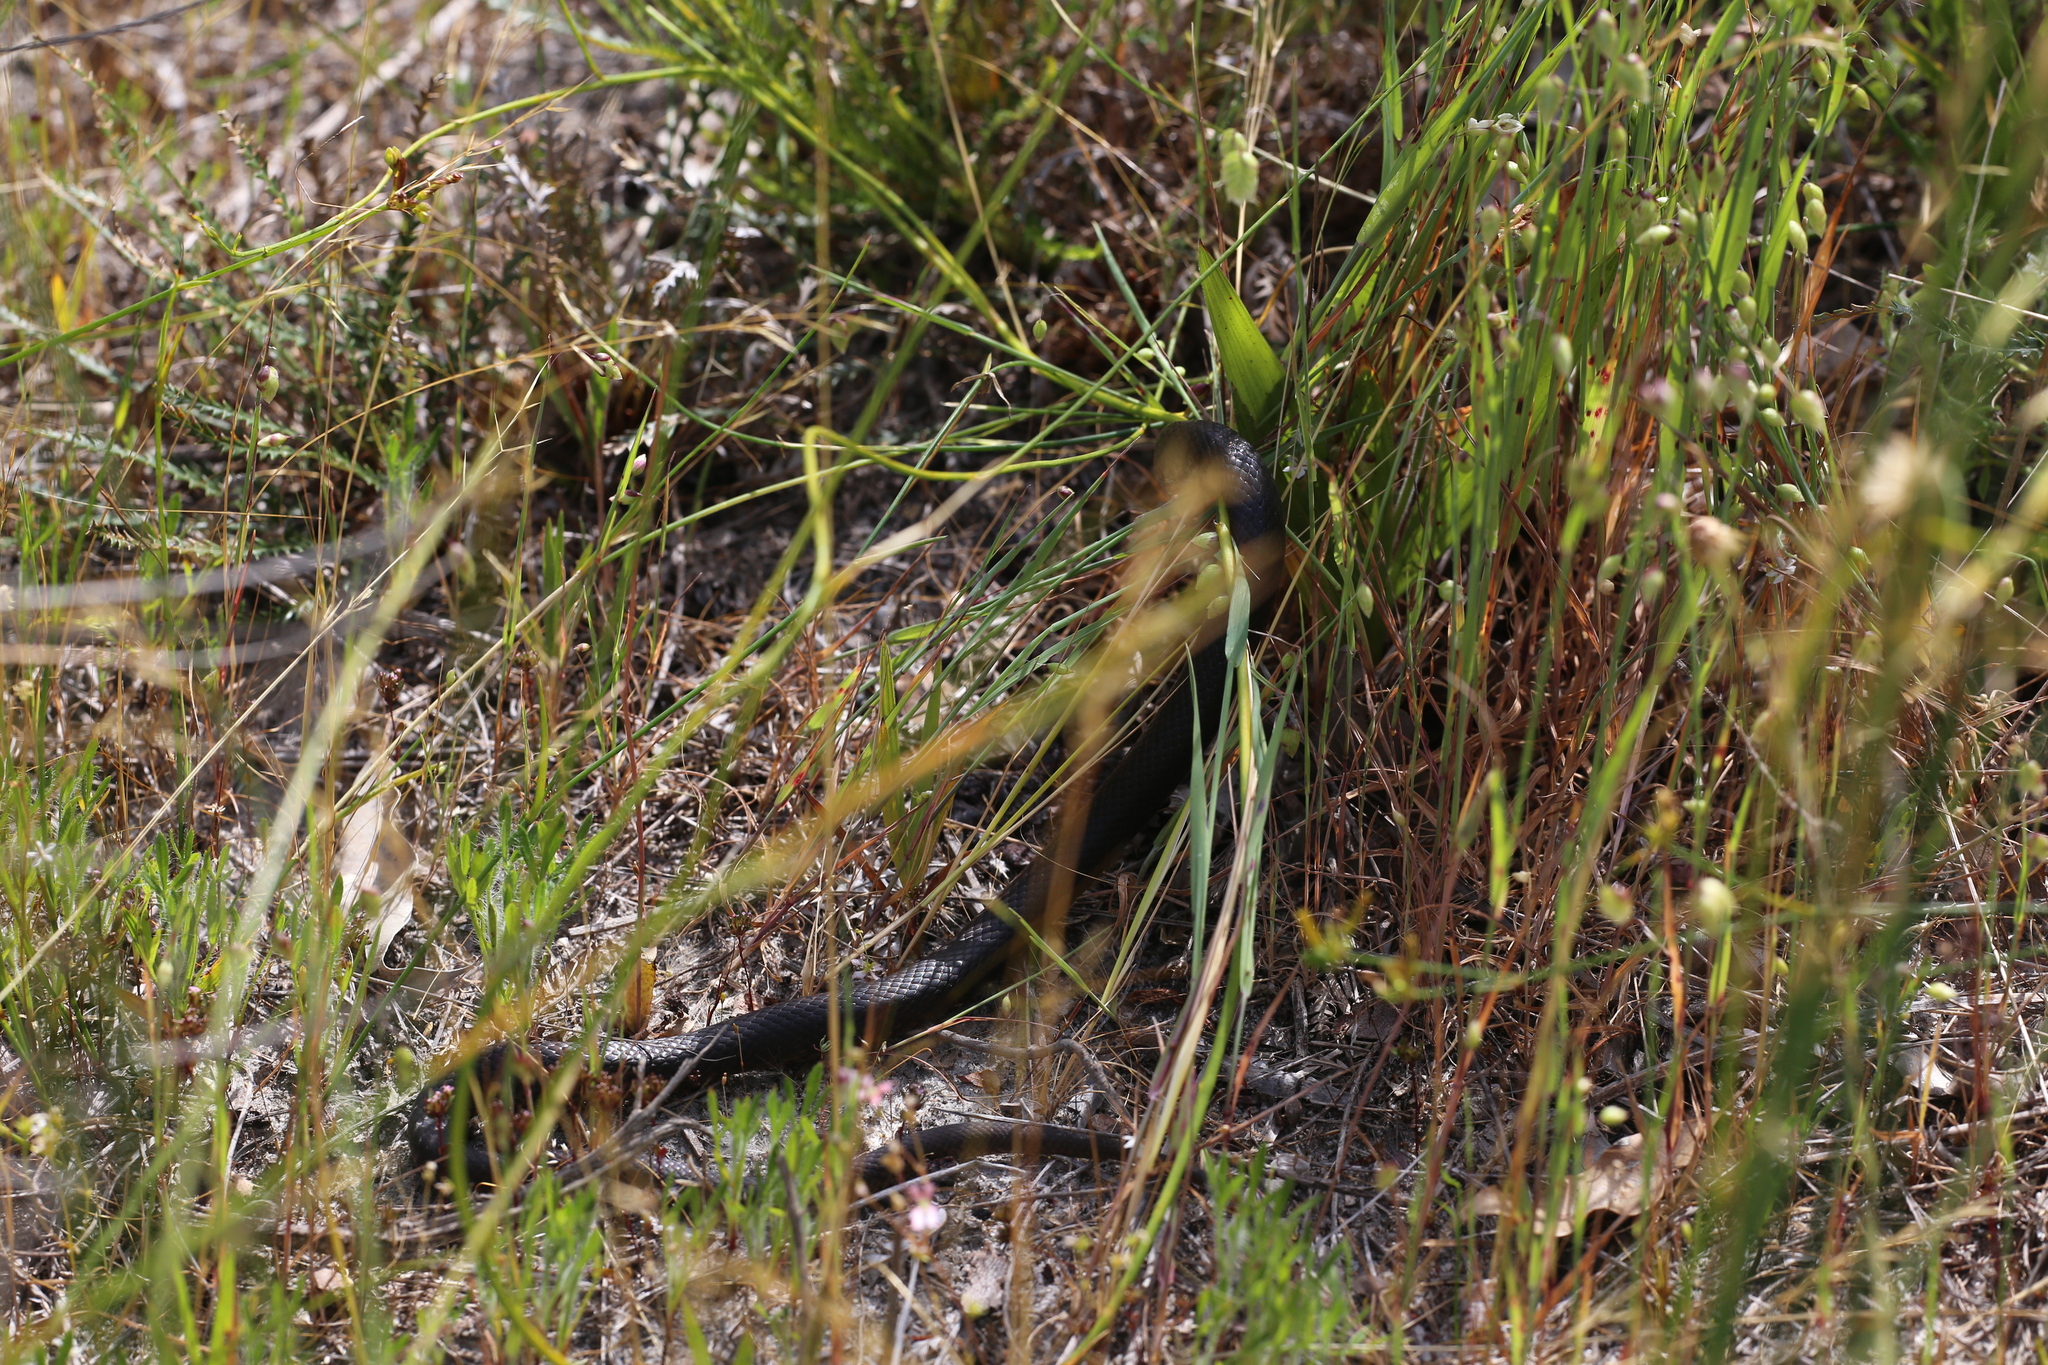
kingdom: Animalia
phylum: Chordata
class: Squamata
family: Elapidae
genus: Pseudonaja
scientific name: Pseudonaja affinis
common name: Dugite
